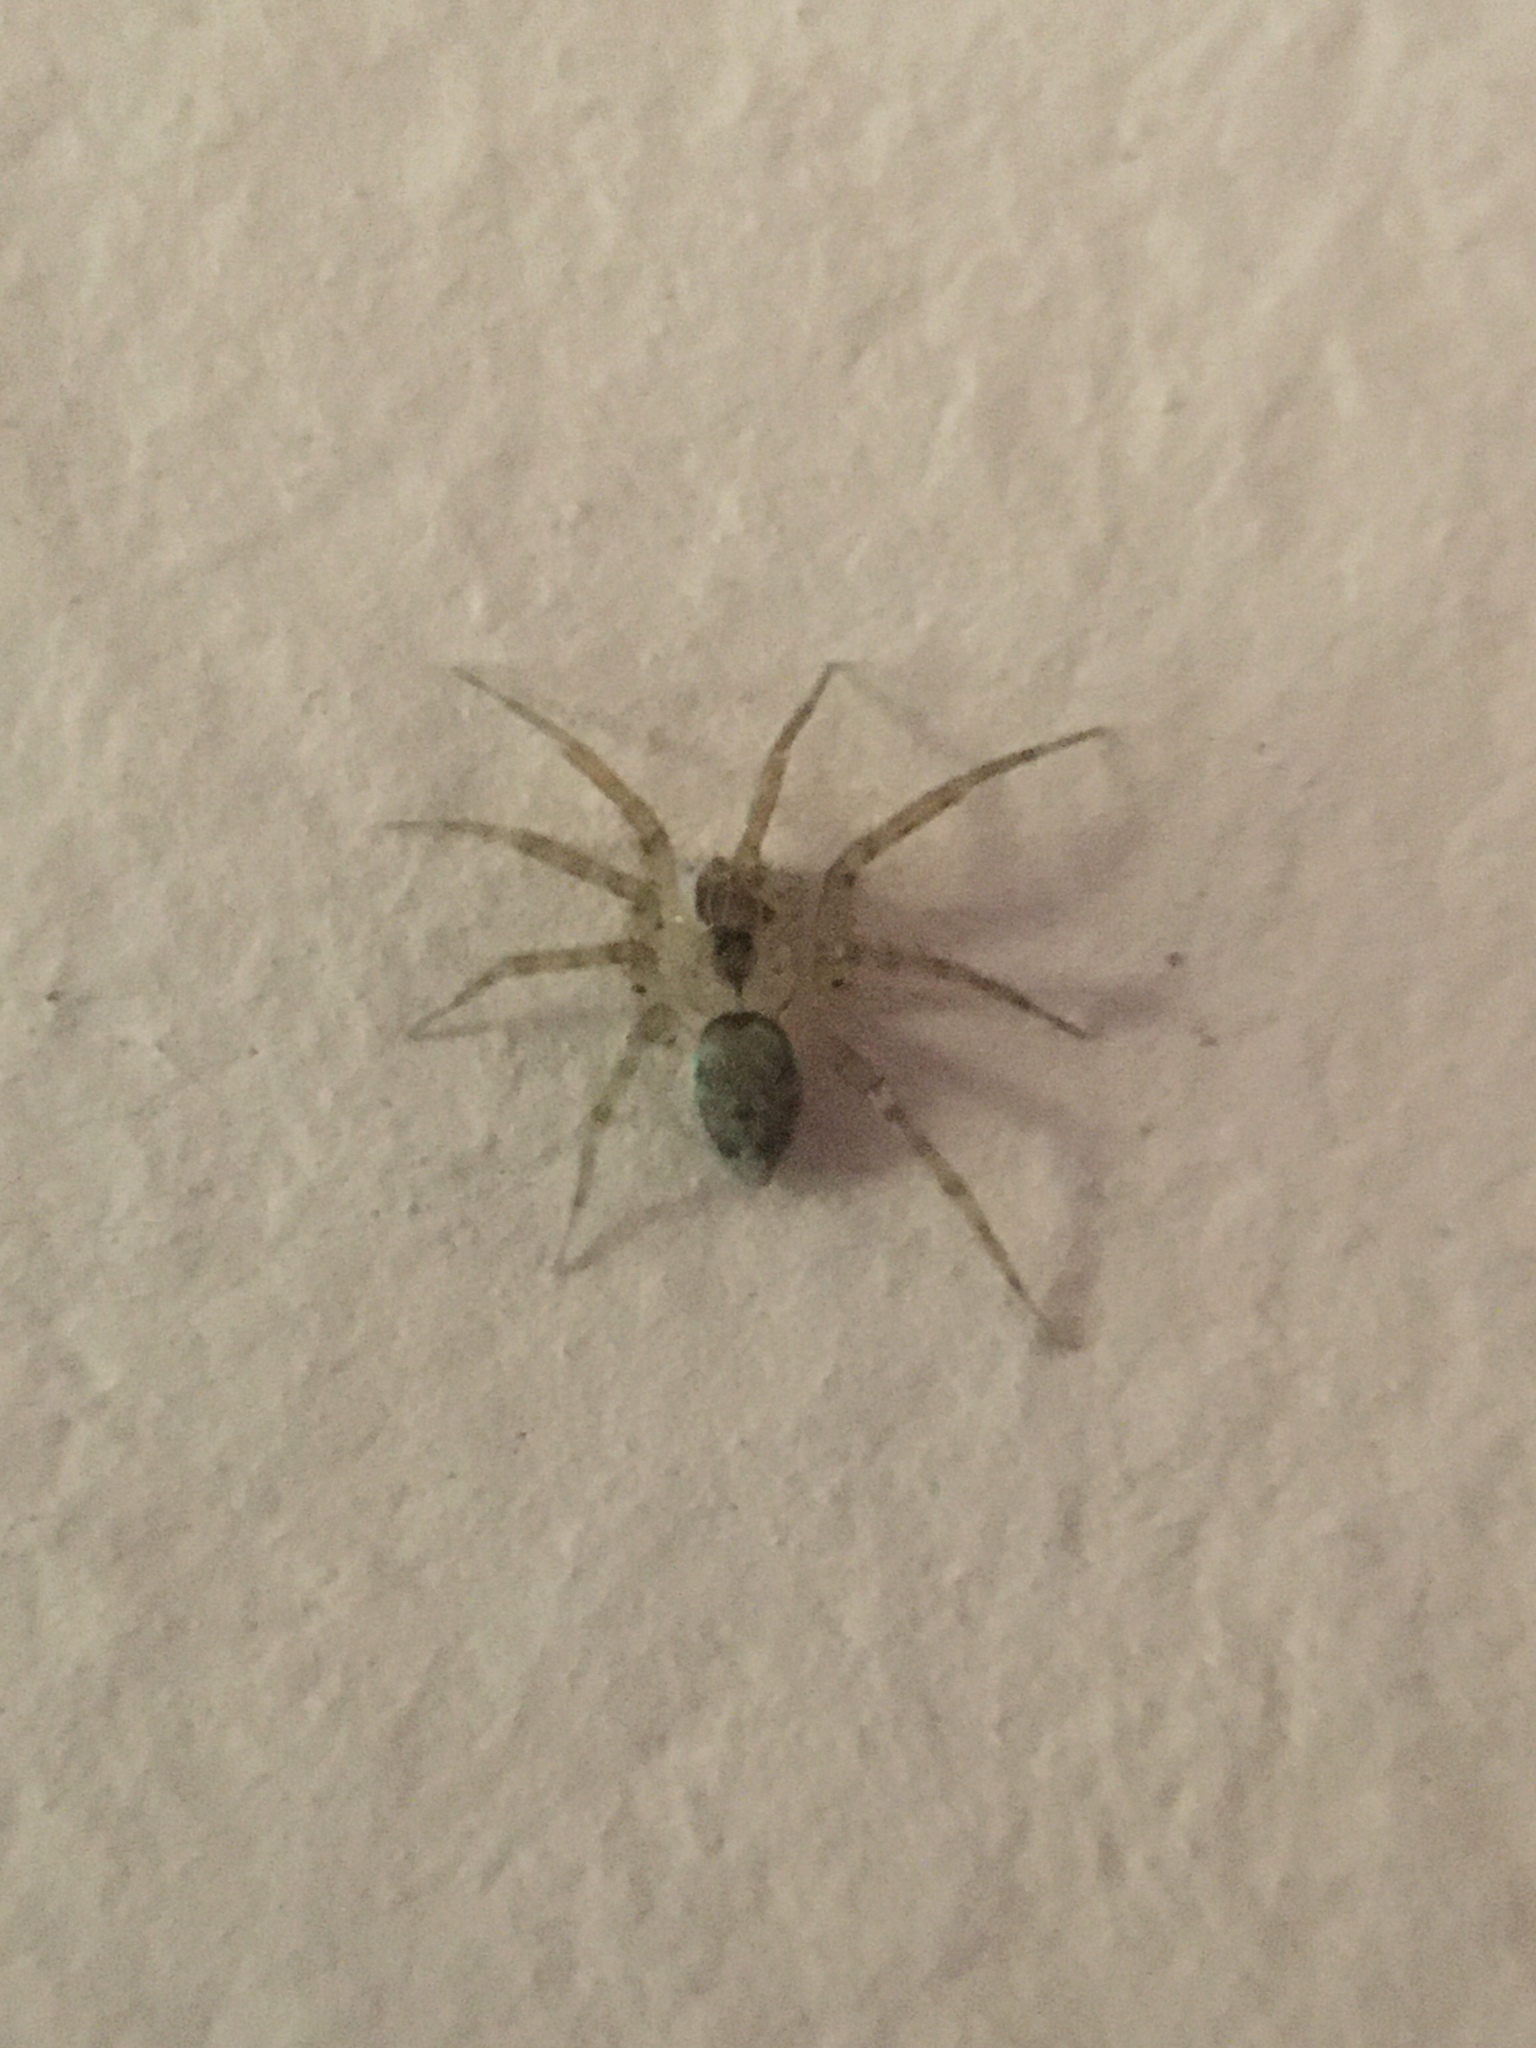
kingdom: Animalia
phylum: Arthropoda
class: Arachnida
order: Araneae
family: Oecobiidae
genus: Oecobius
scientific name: Oecobius navus
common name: Flatmesh weaver
